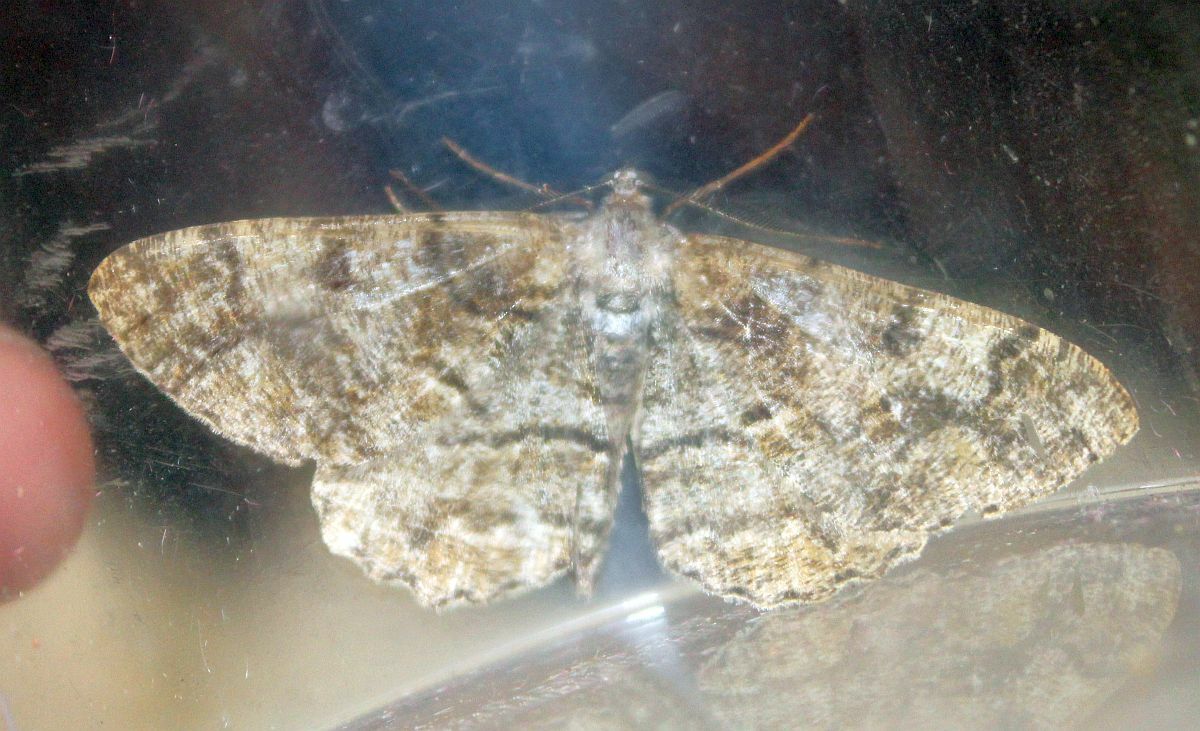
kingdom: Animalia
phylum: Arthropoda
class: Insecta
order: Lepidoptera
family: Geometridae
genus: Alcis
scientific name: Alcis repandata
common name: Mottled beauty
